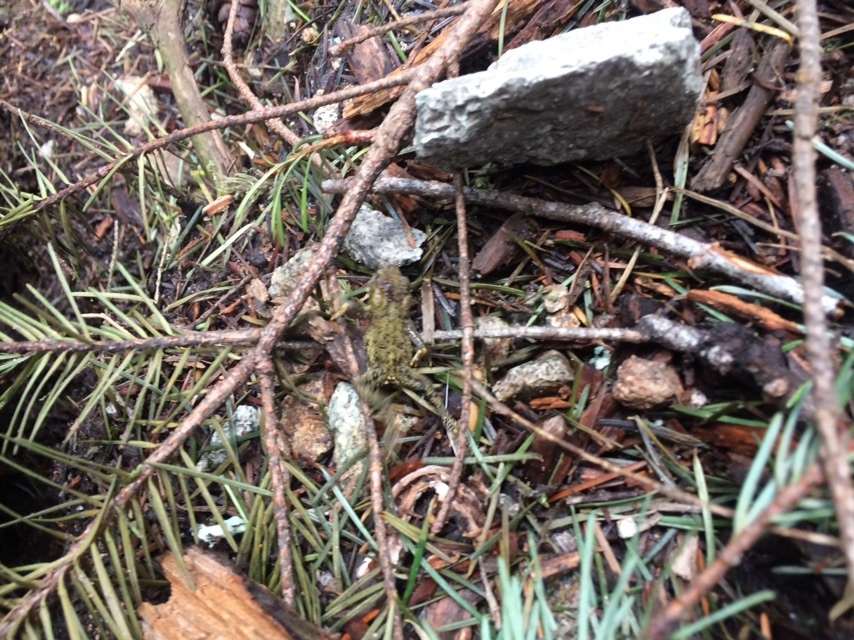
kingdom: Animalia
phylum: Chordata
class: Amphibia
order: Anura
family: Bufonidae
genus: Anaxyrus
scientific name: Anaxyrus boreas
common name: Western toad
